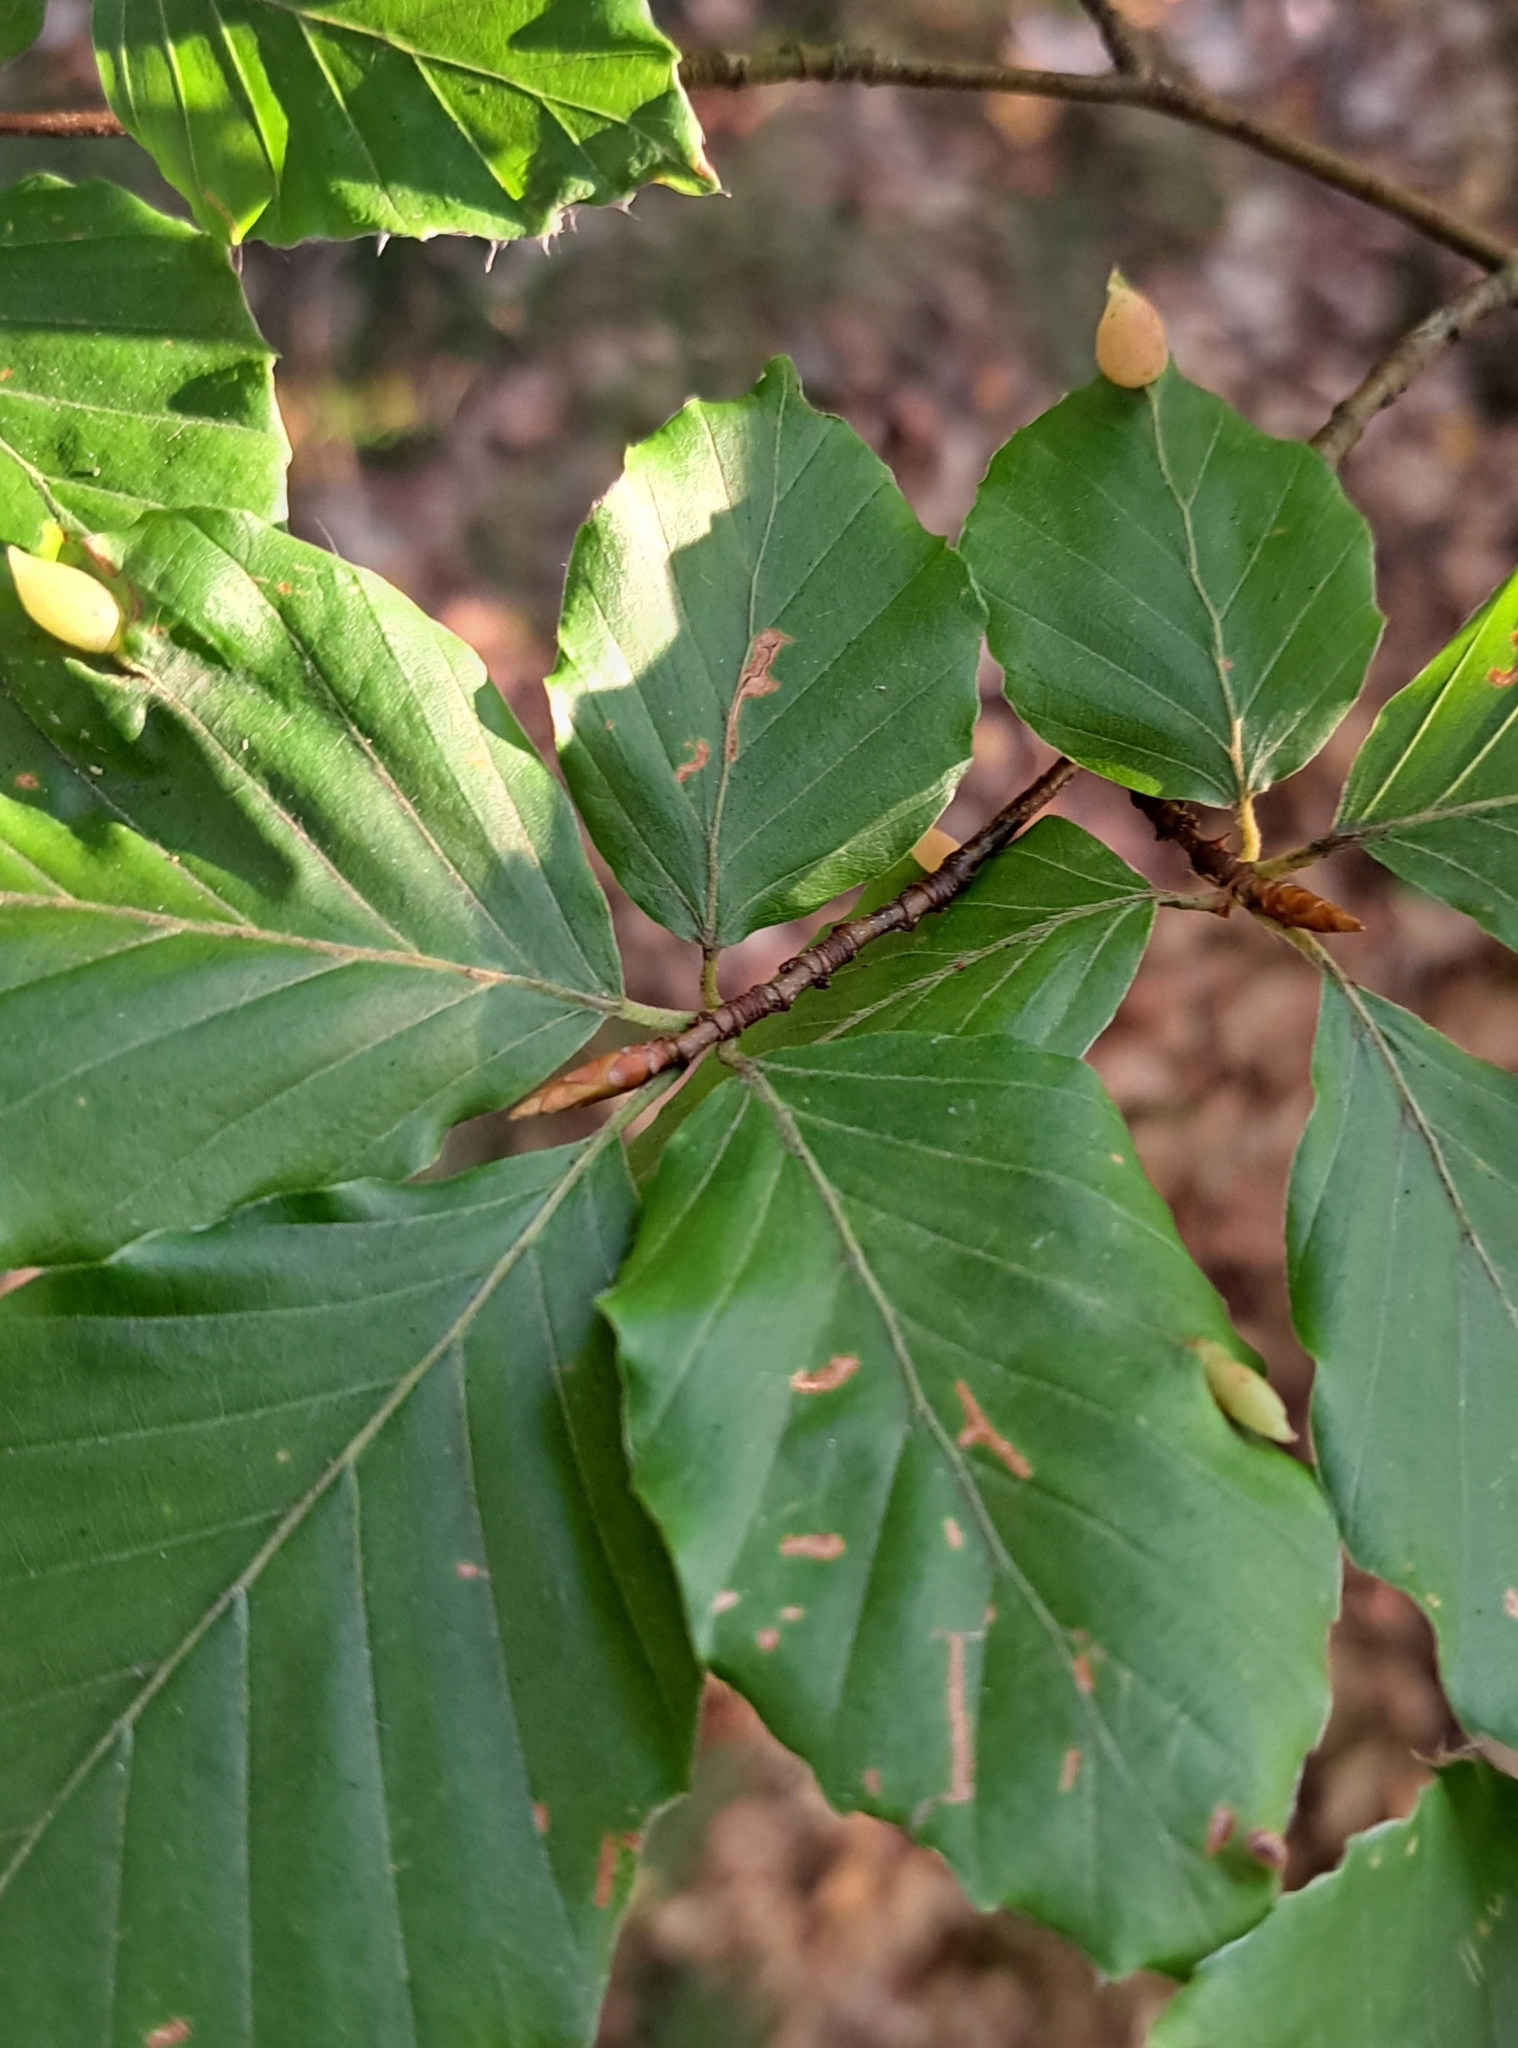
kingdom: Animalia
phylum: Arthropoda
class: Insecta
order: Diptera
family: Cecidomyiidae
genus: Mikiola
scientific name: Mikiola fagi
